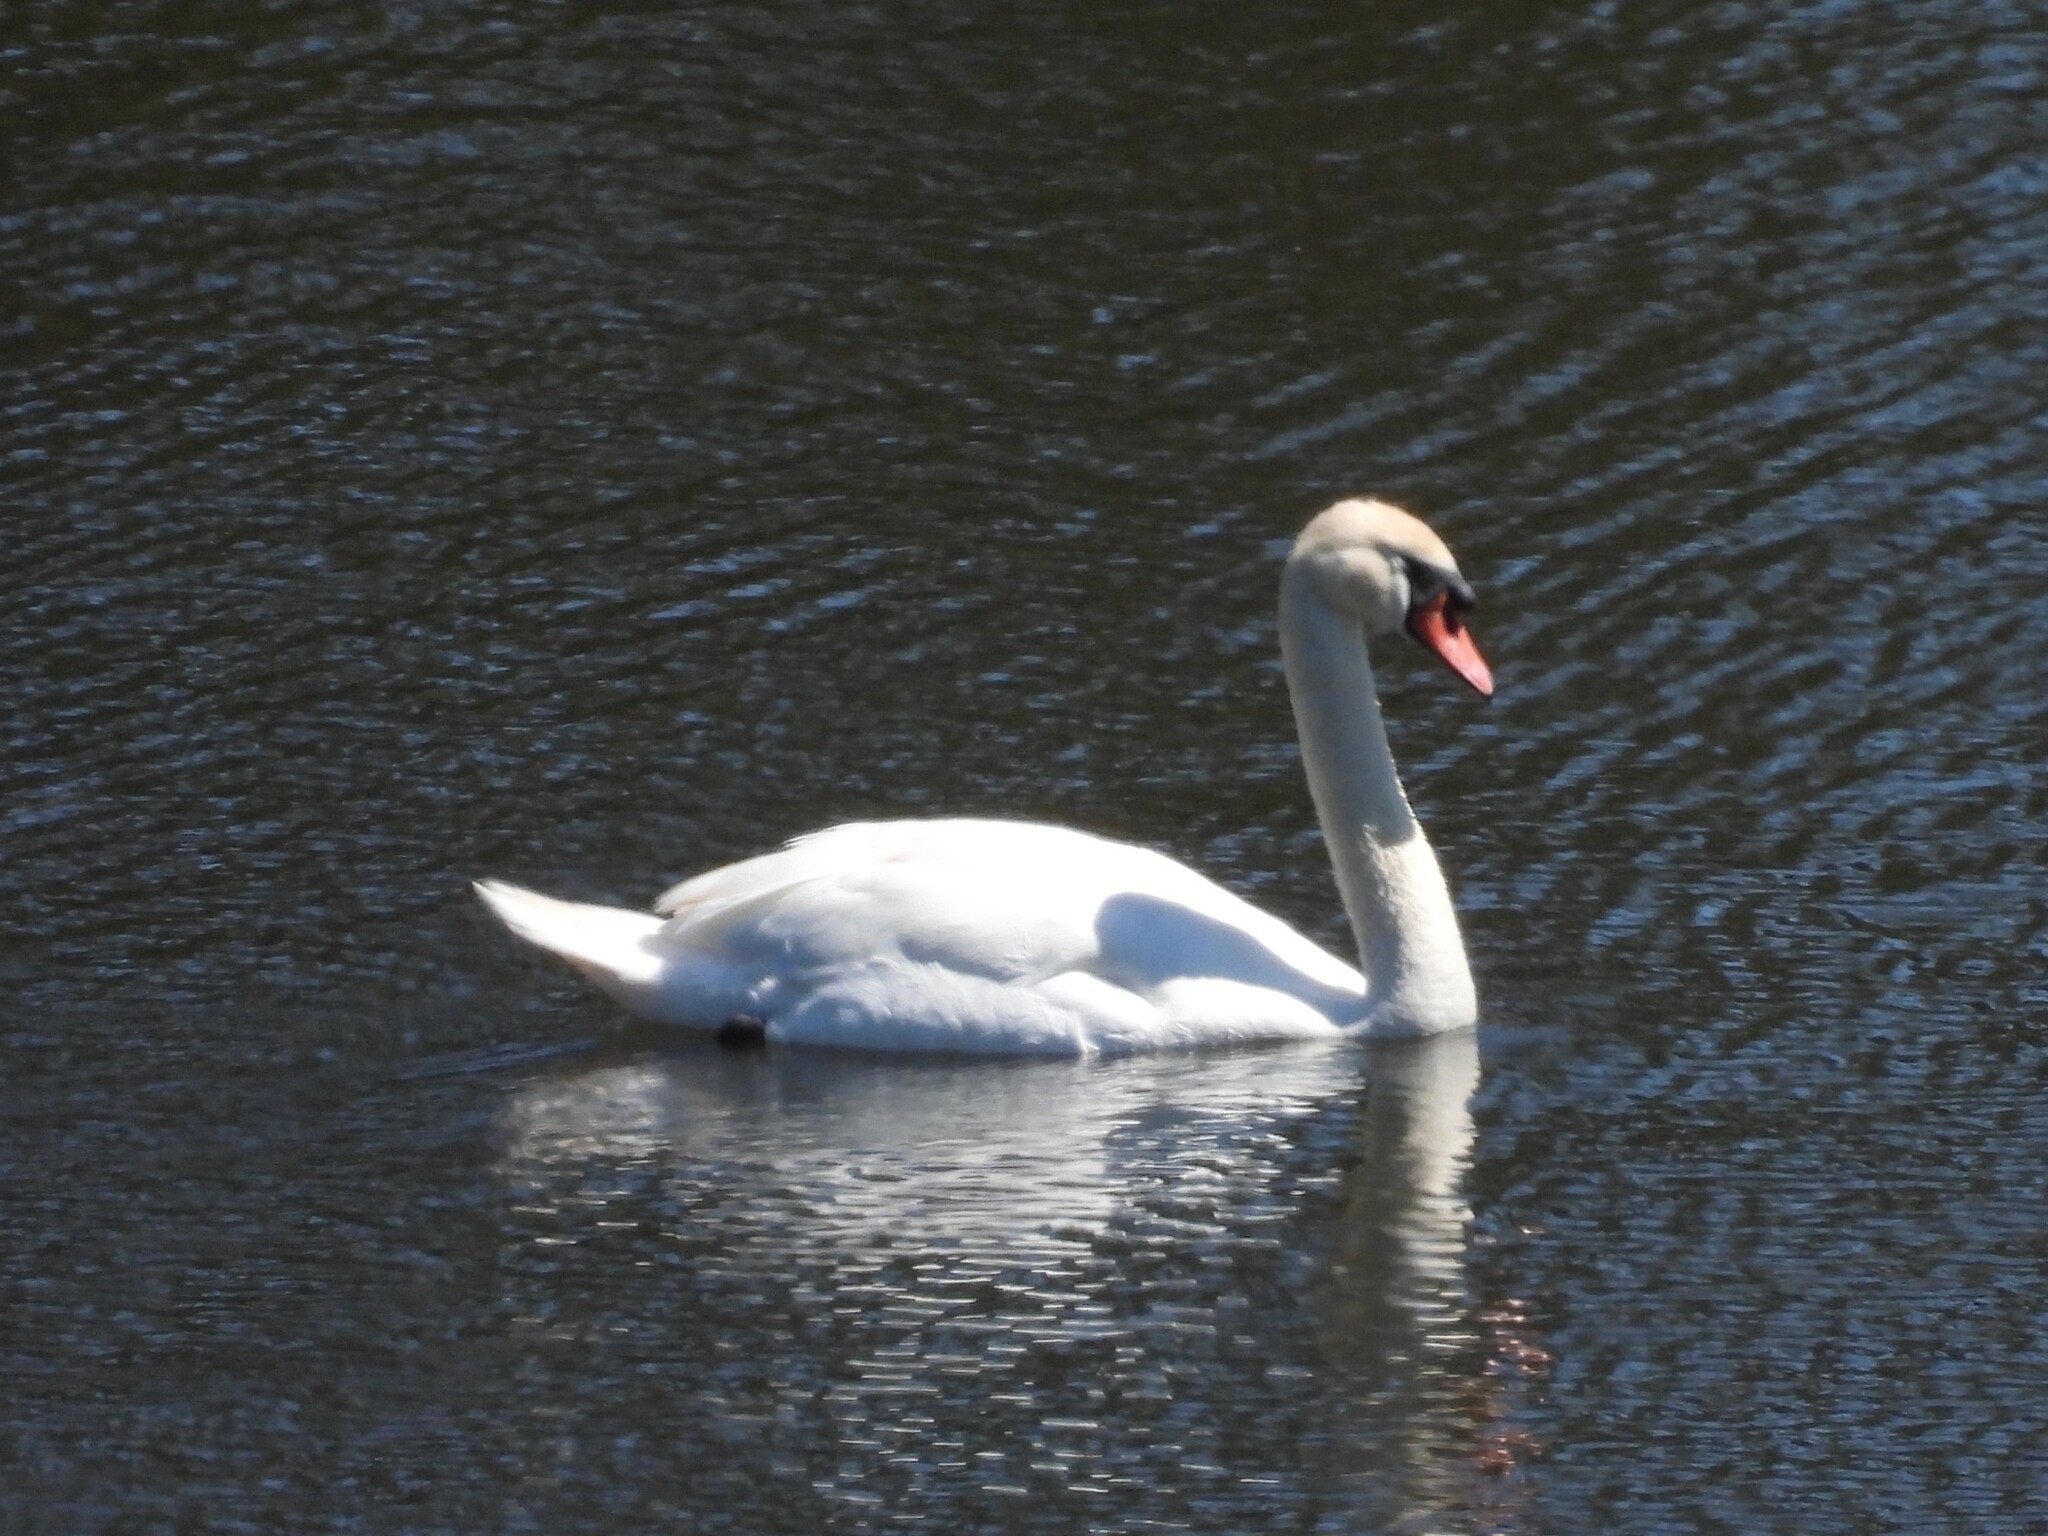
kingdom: Animalia
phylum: Chordata
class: Aves
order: Anseriformes
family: Anatidae
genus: Cygnus
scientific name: Cygnus olor
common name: Mute swan
